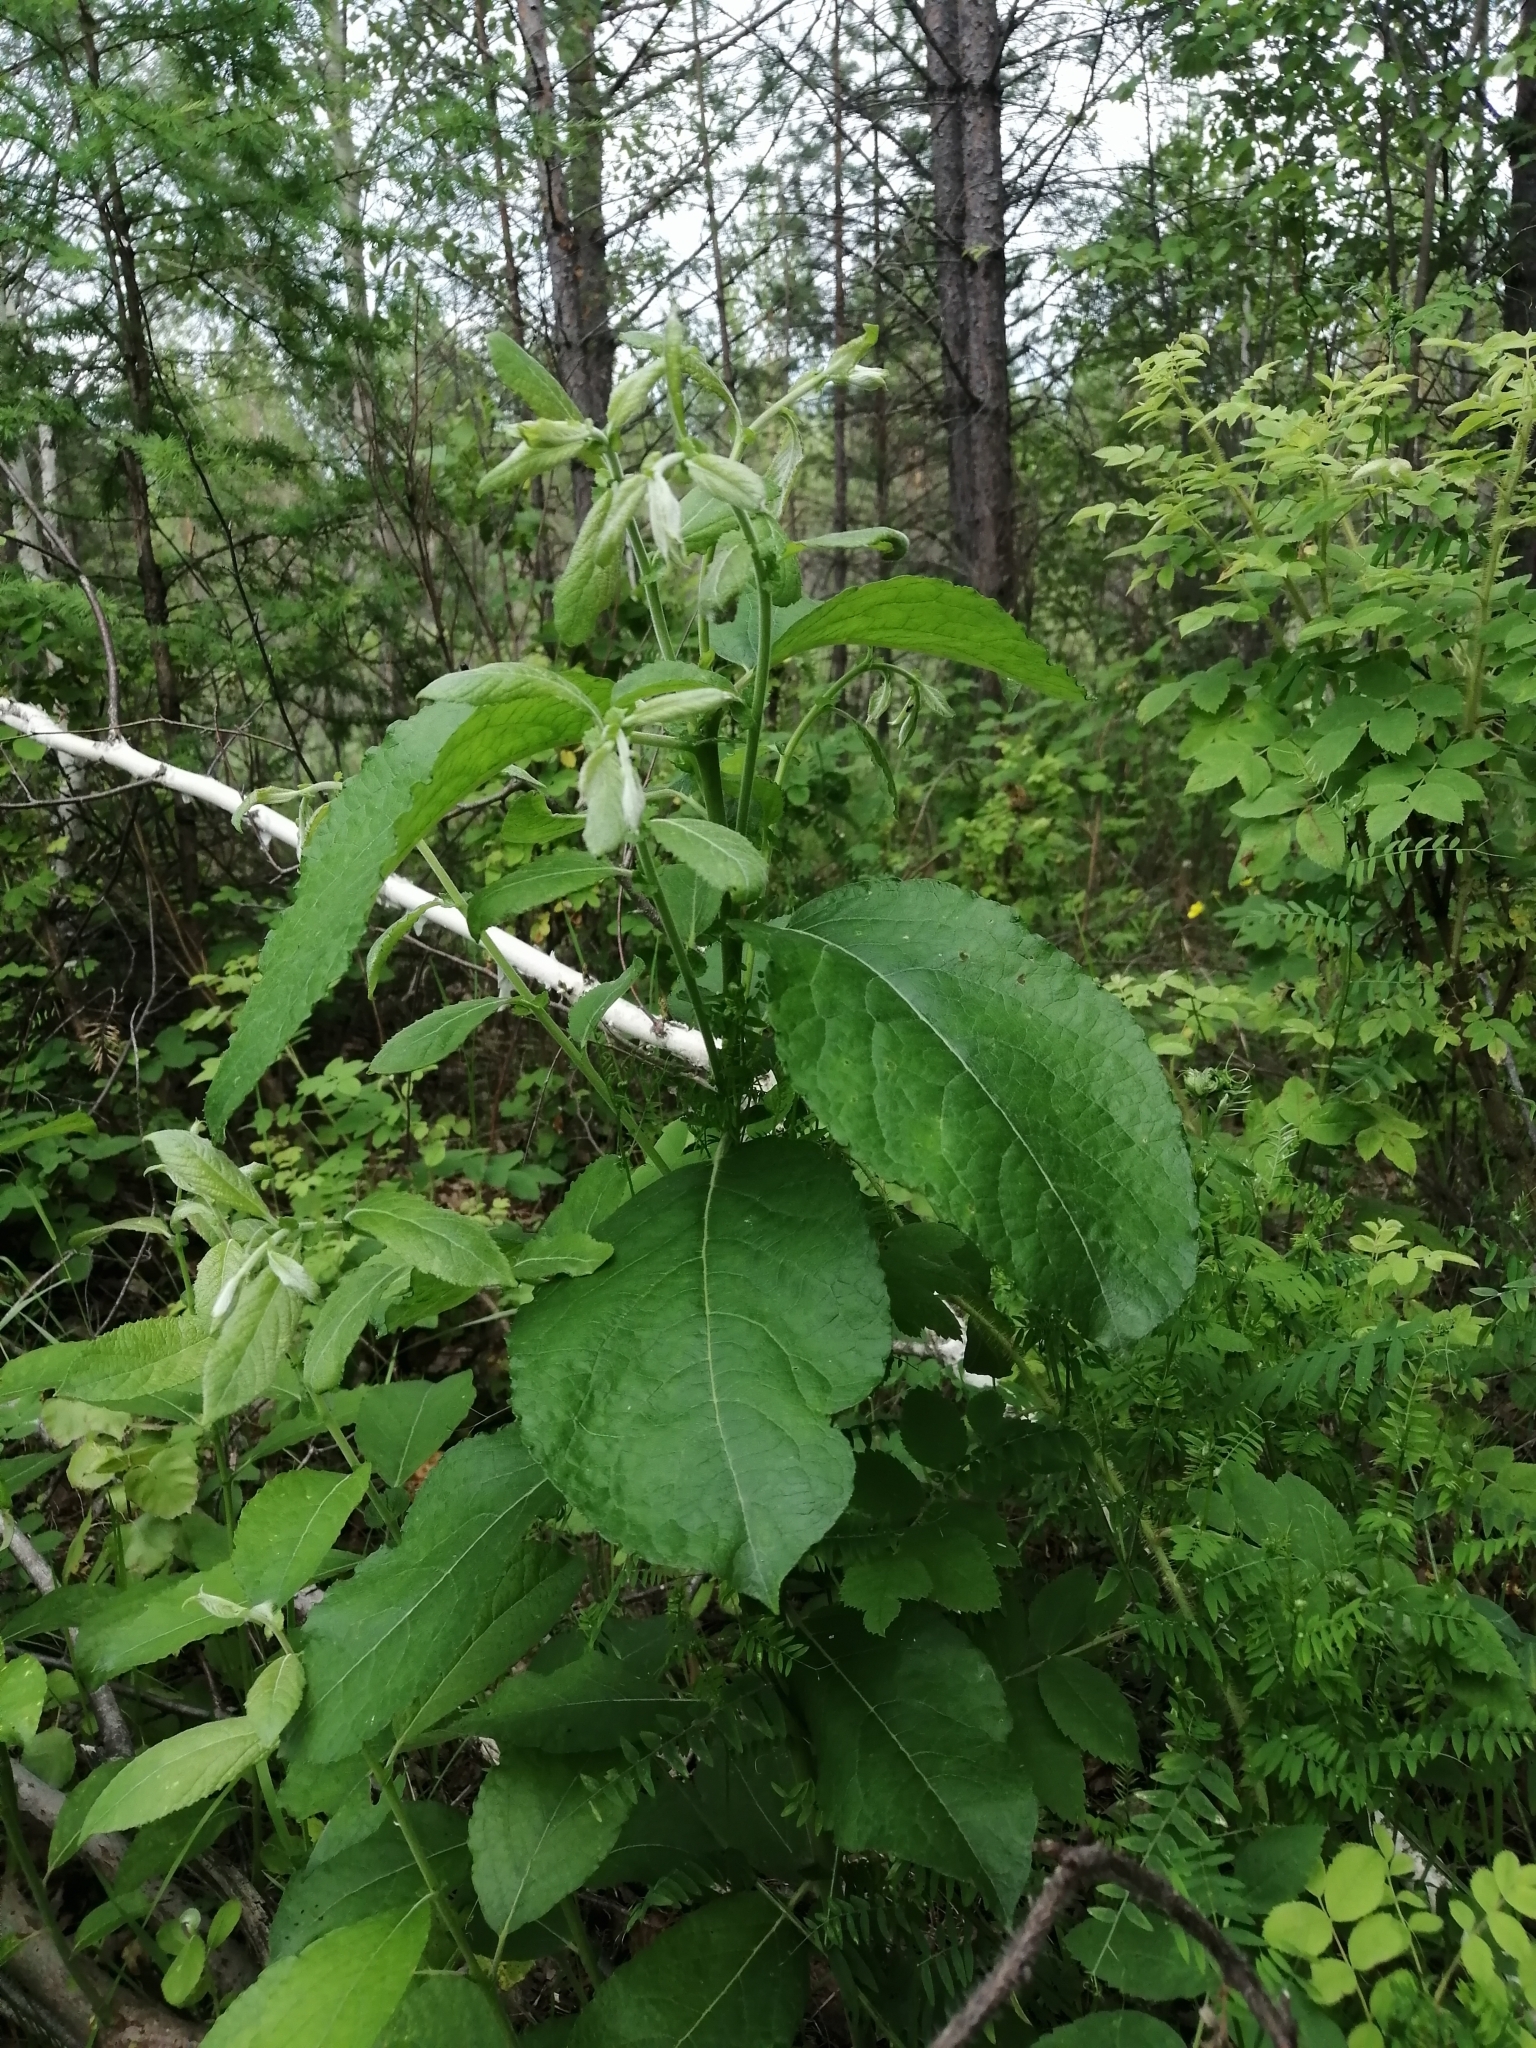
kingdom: Plantae
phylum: Tracheophyta
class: Magnoliopsida
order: Malpighiales
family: Salicaceae
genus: Salix
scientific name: Salix caprea
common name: Goat willow
